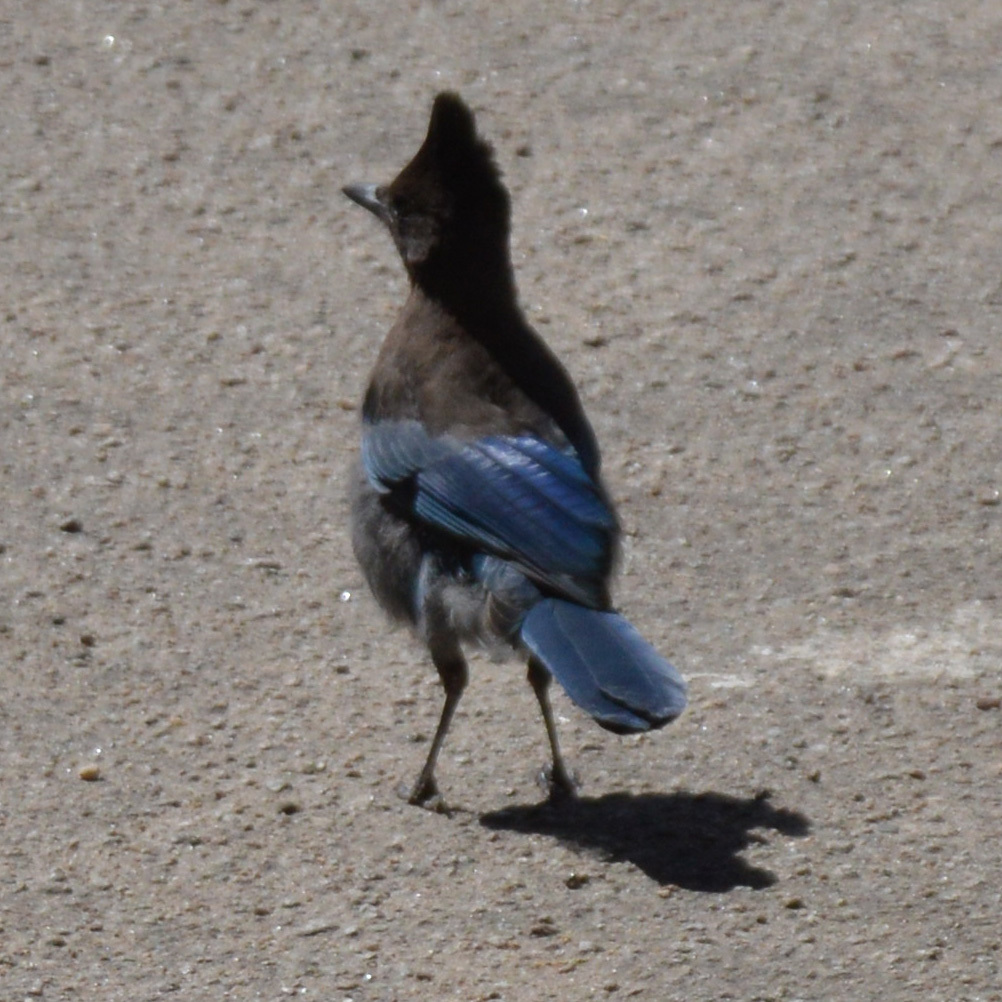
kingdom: Animalia
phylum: Chordata
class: Aves
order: Passeriformes
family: Corvidae
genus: Cyanocitta
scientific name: Cyanocitta stelleri
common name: Steller's jay
